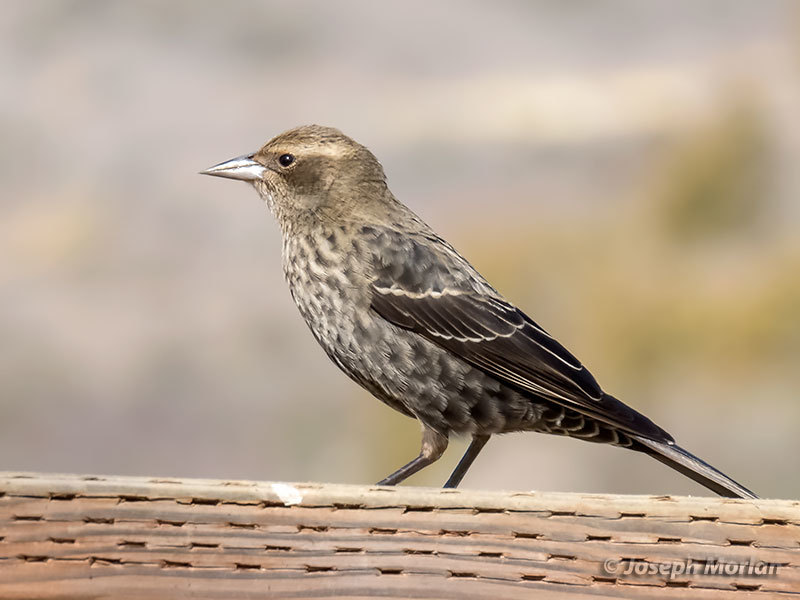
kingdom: Animalia
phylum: Chordata
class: Aves
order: Passeriformes
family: Icteridae
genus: Agelaius
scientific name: Agelaius tricolor
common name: Tricolored blackbird
